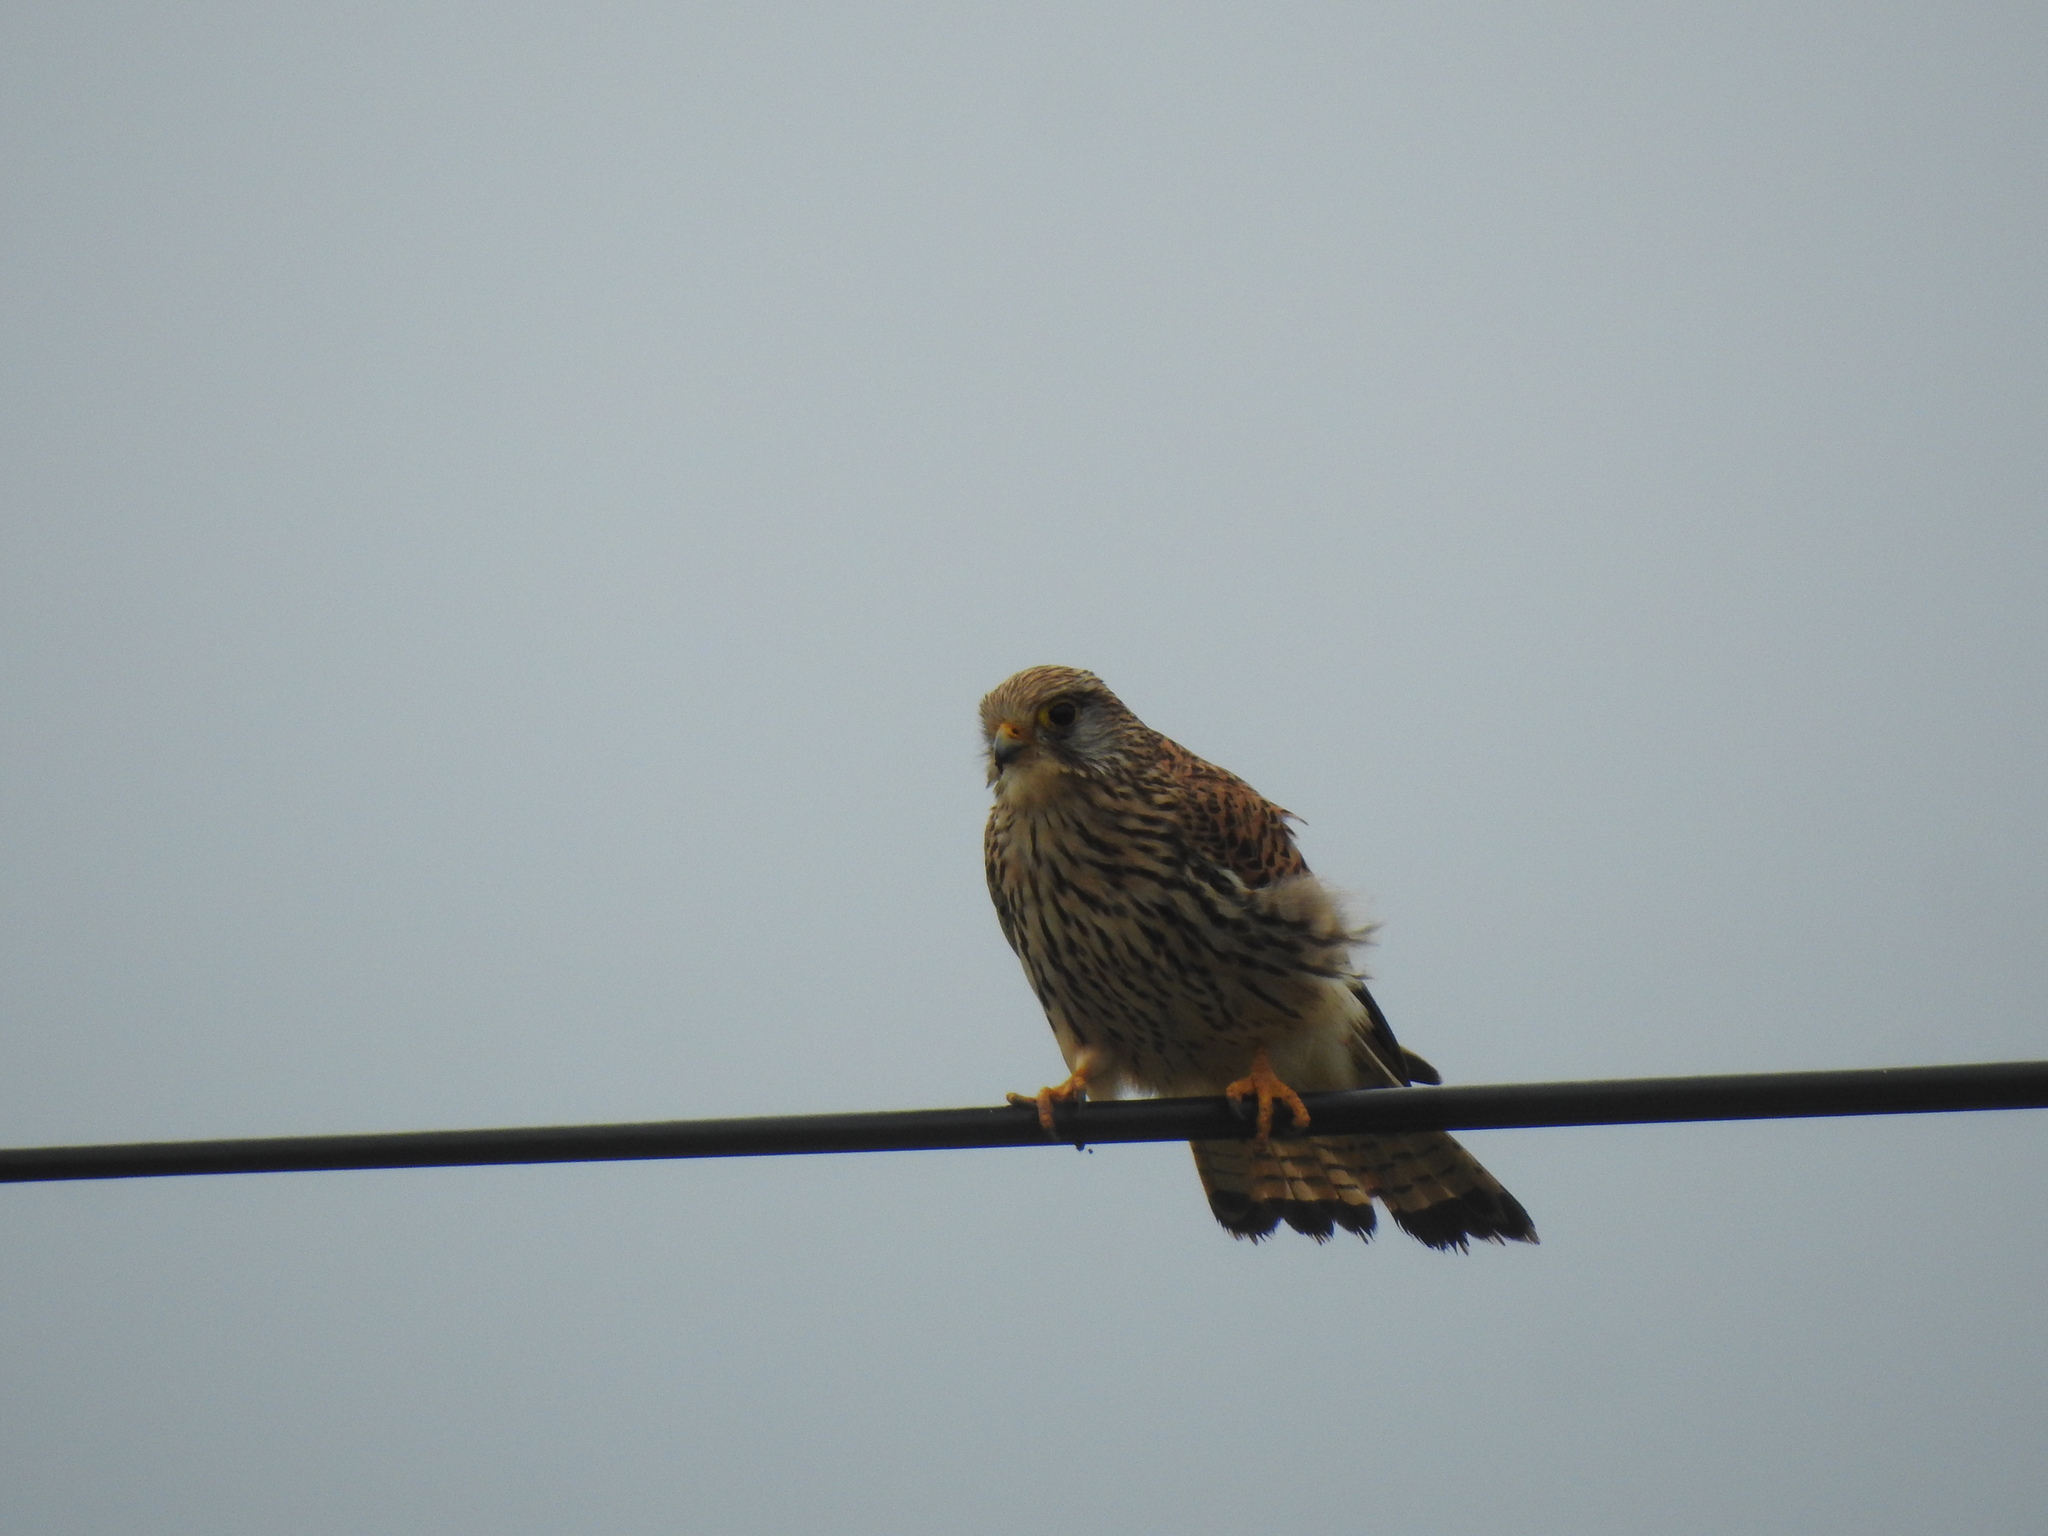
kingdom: Animalia
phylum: Chordata
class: Aves
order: Falconiformes
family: Falconidae
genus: Falco
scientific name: Falco tinnunculus
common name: Common kestrel
